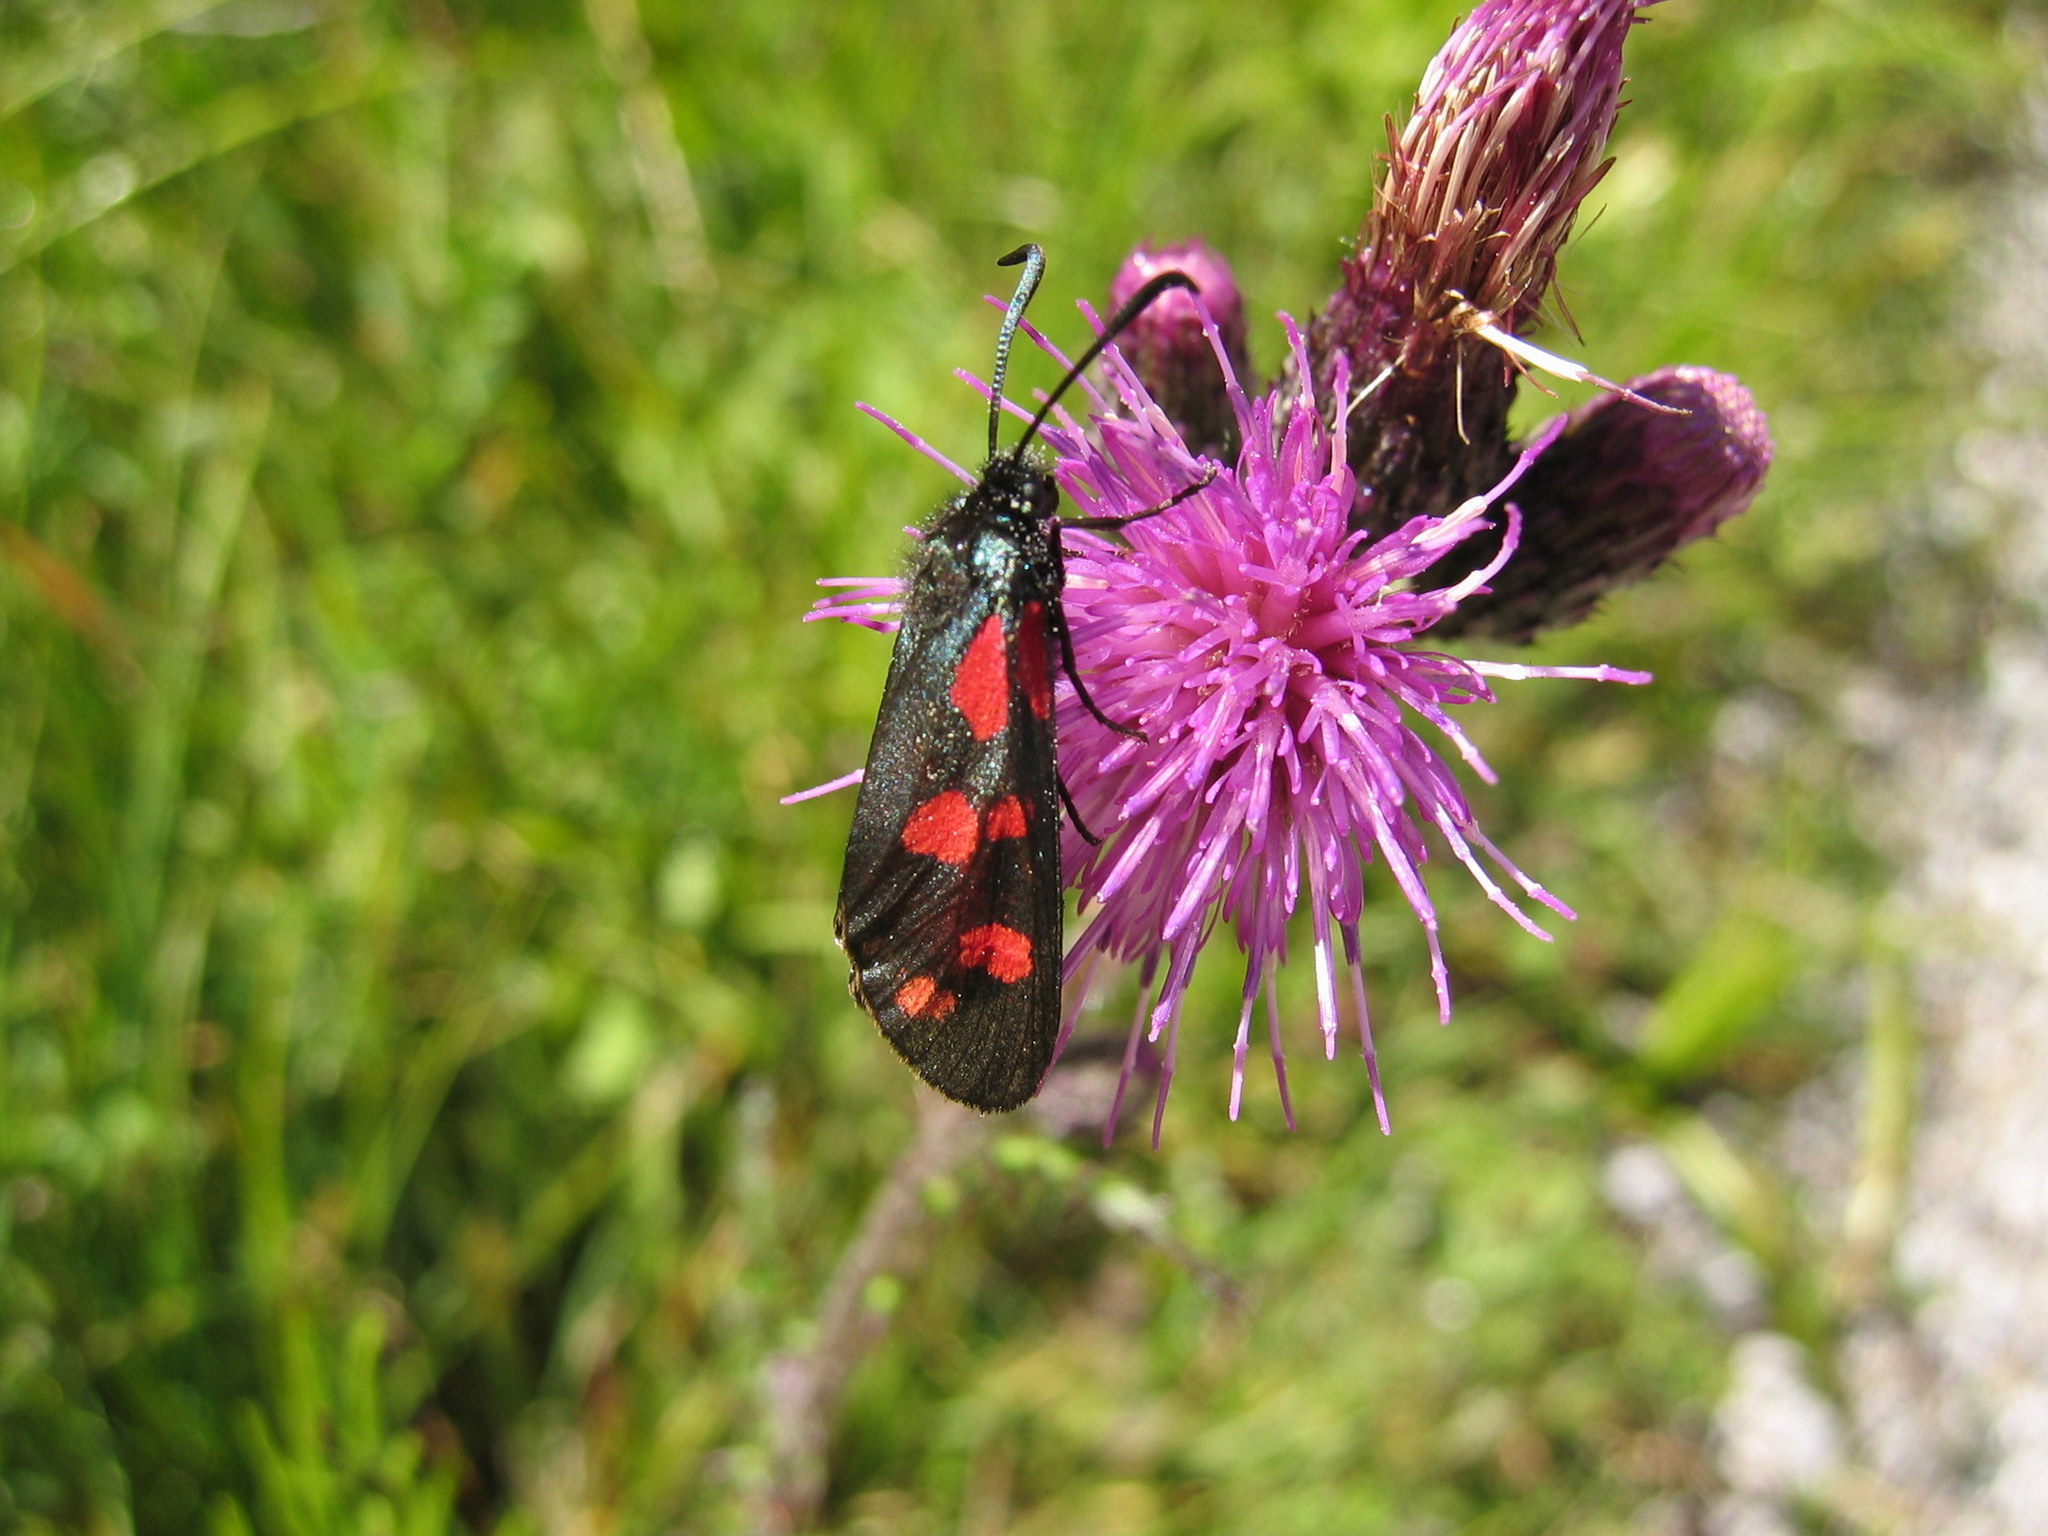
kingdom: Animalia
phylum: Arthropoda
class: Insecta
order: Lepidoptera
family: Zygaenidae
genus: Zygaena
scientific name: Zygaena filipendulae
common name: Six-spot burnet
